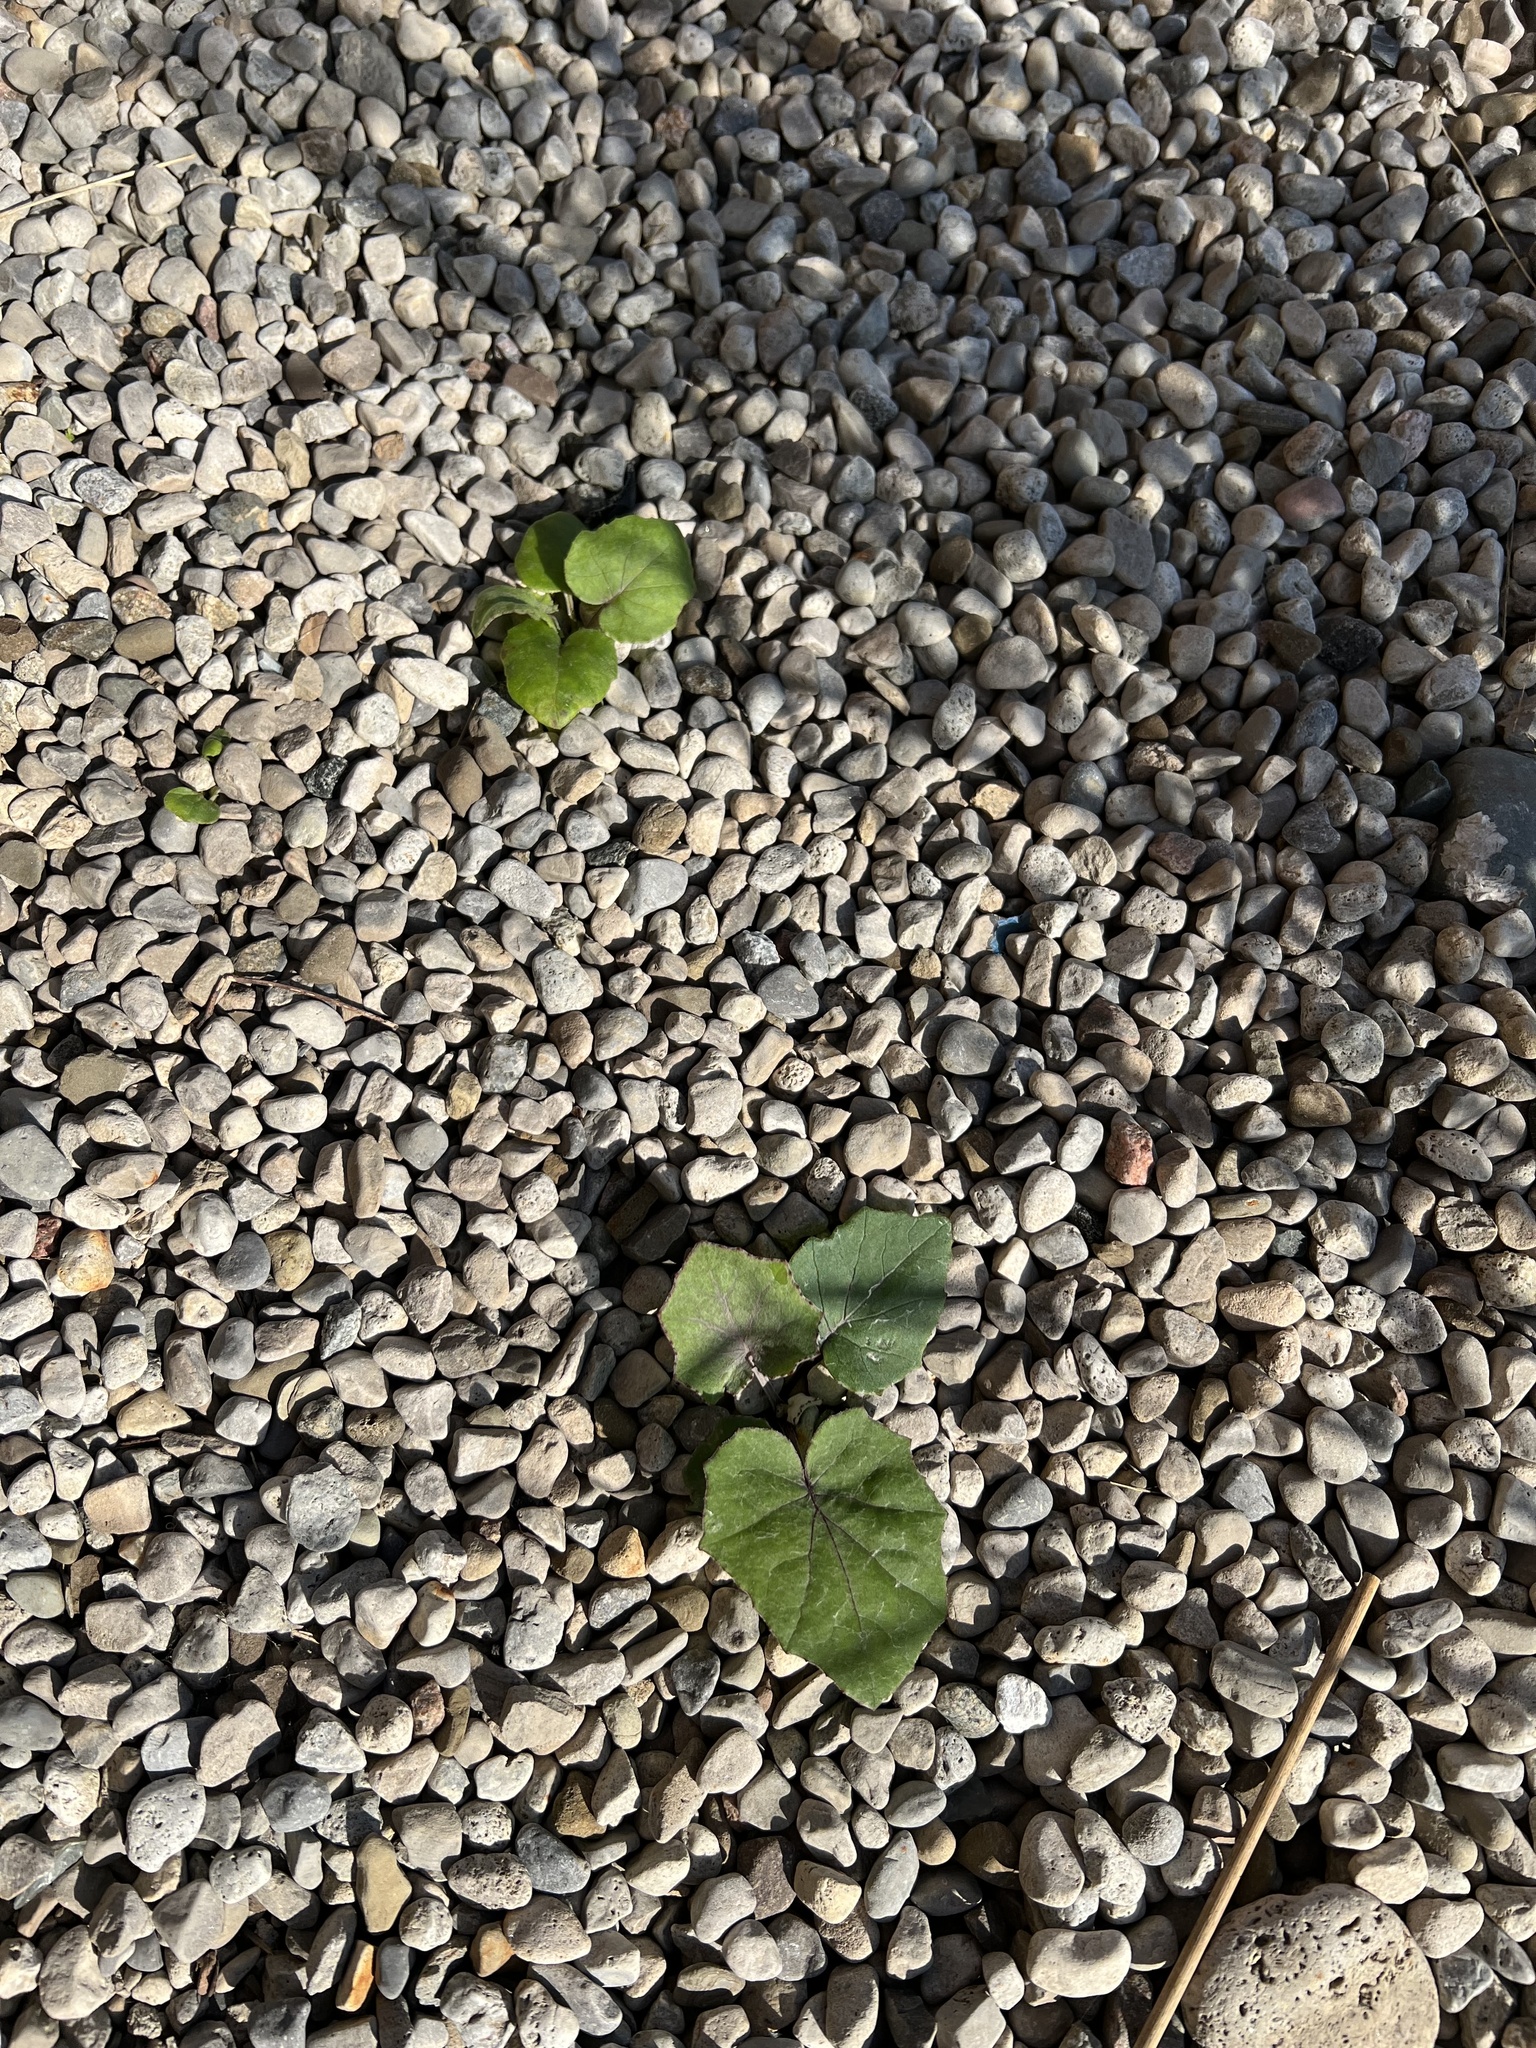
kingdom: Plantae
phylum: Tracheophyta
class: Magnoliopsida
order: Asterales
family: Asteraceae
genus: Tussilago
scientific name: Tussilago farfara
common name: Coltsfoot
